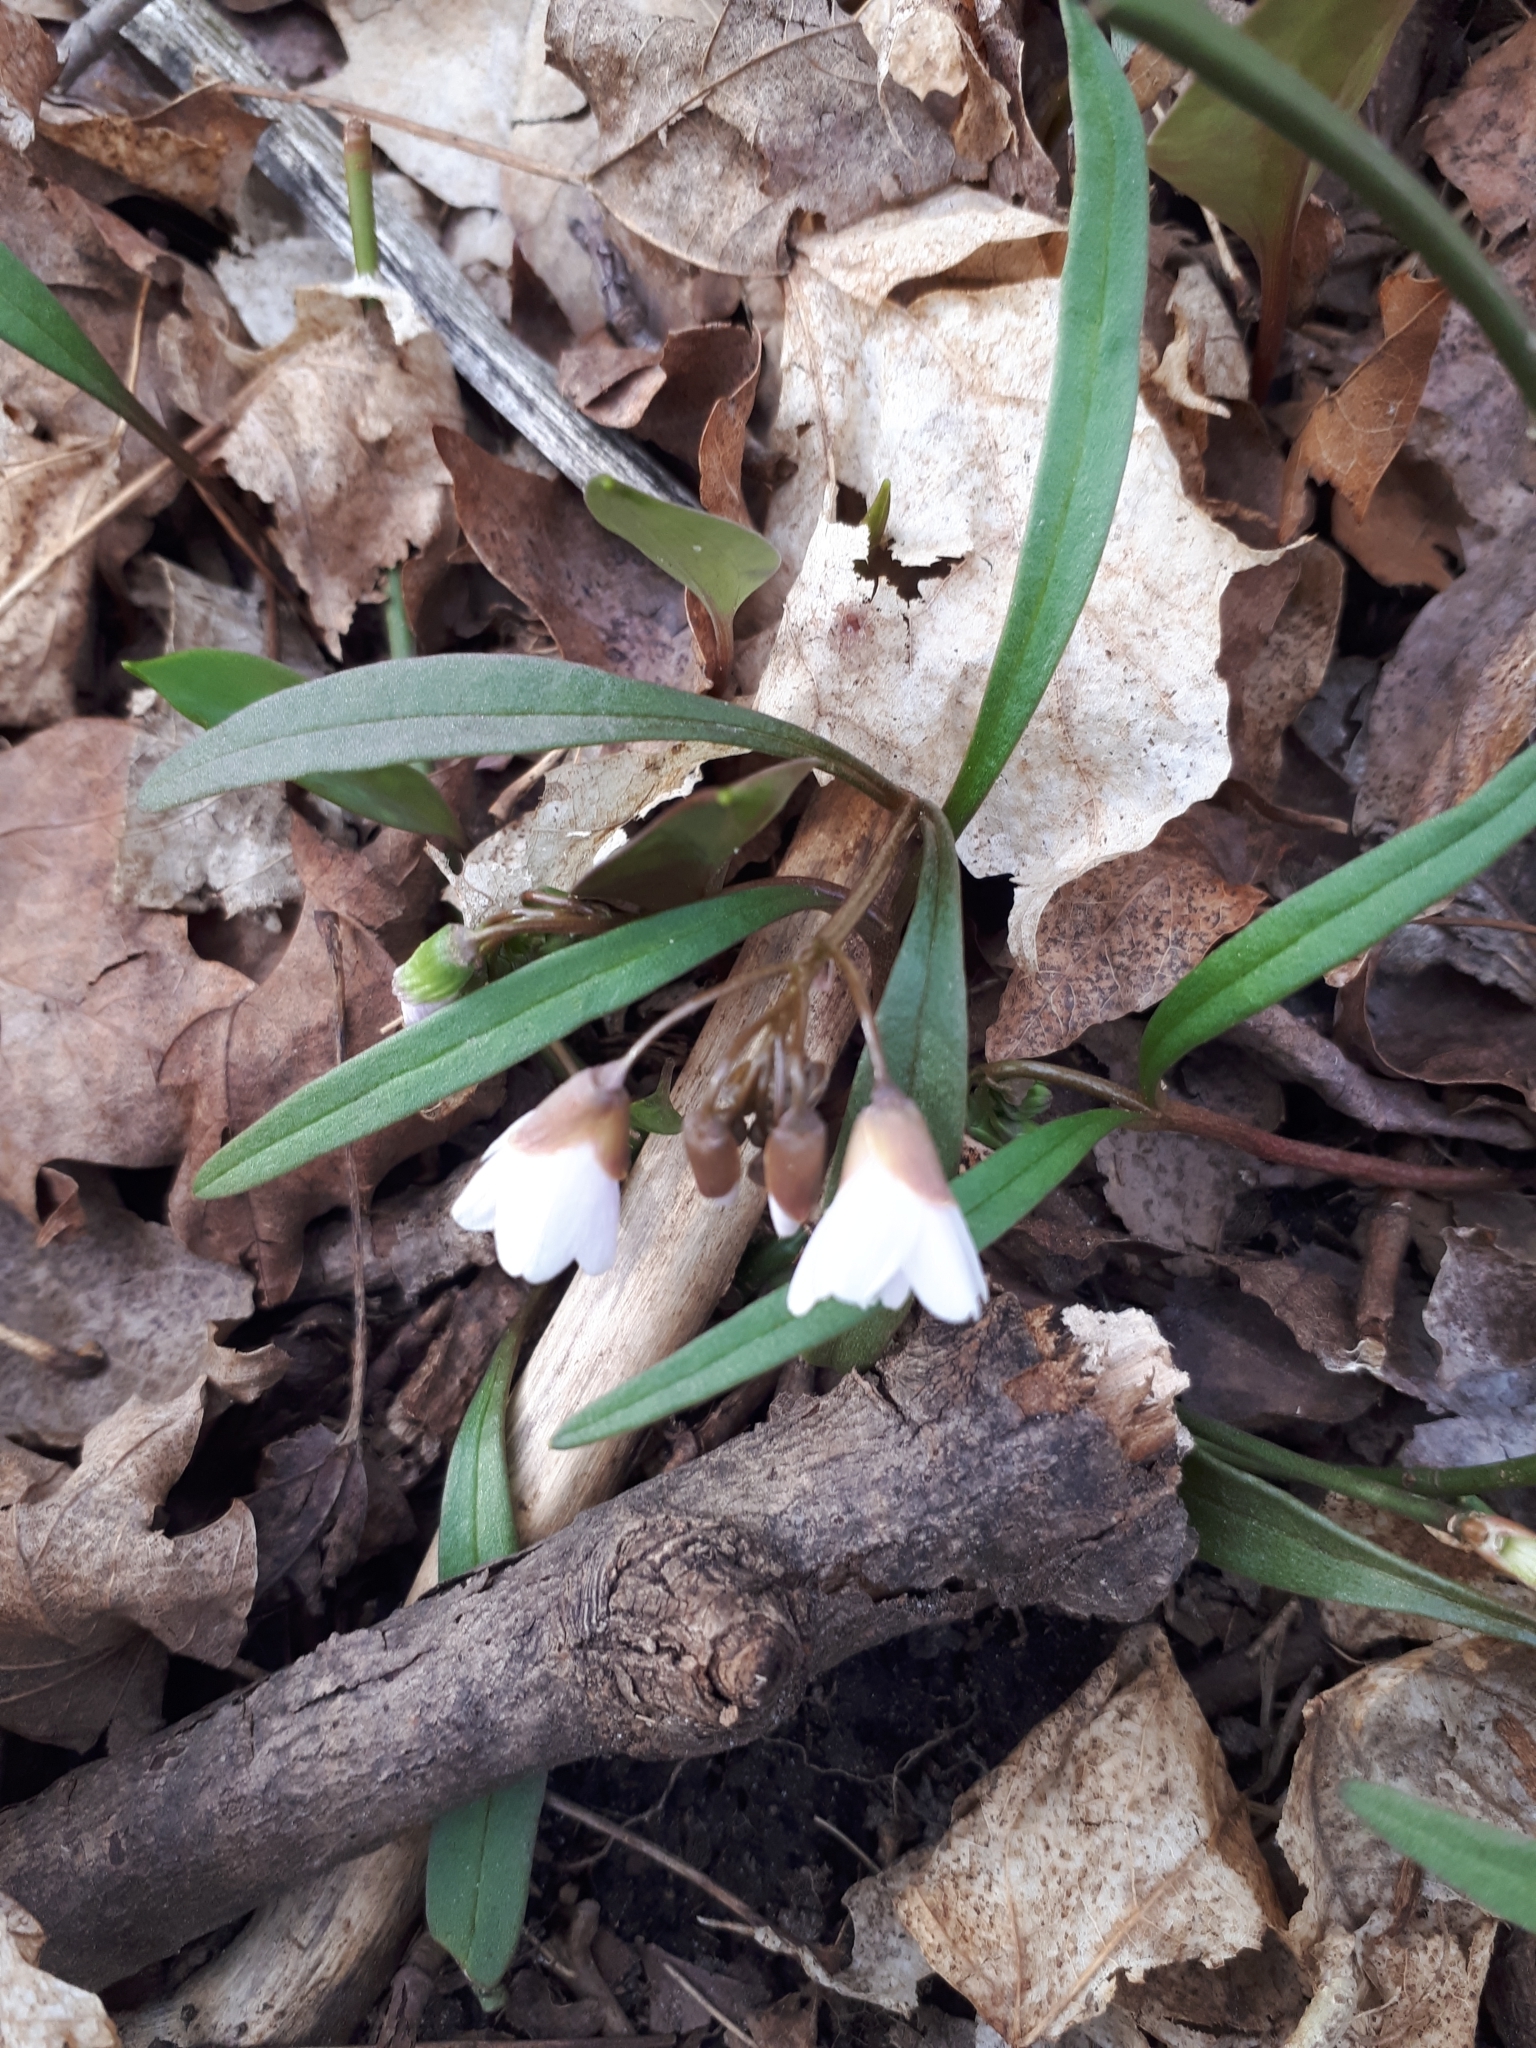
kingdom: Plantae
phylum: Tracheophyta
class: Magnoliopsida
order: Caryophyllales
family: Montiaceae
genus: Claytonia
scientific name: Claytonia virginica
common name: Virginia springbeauty
